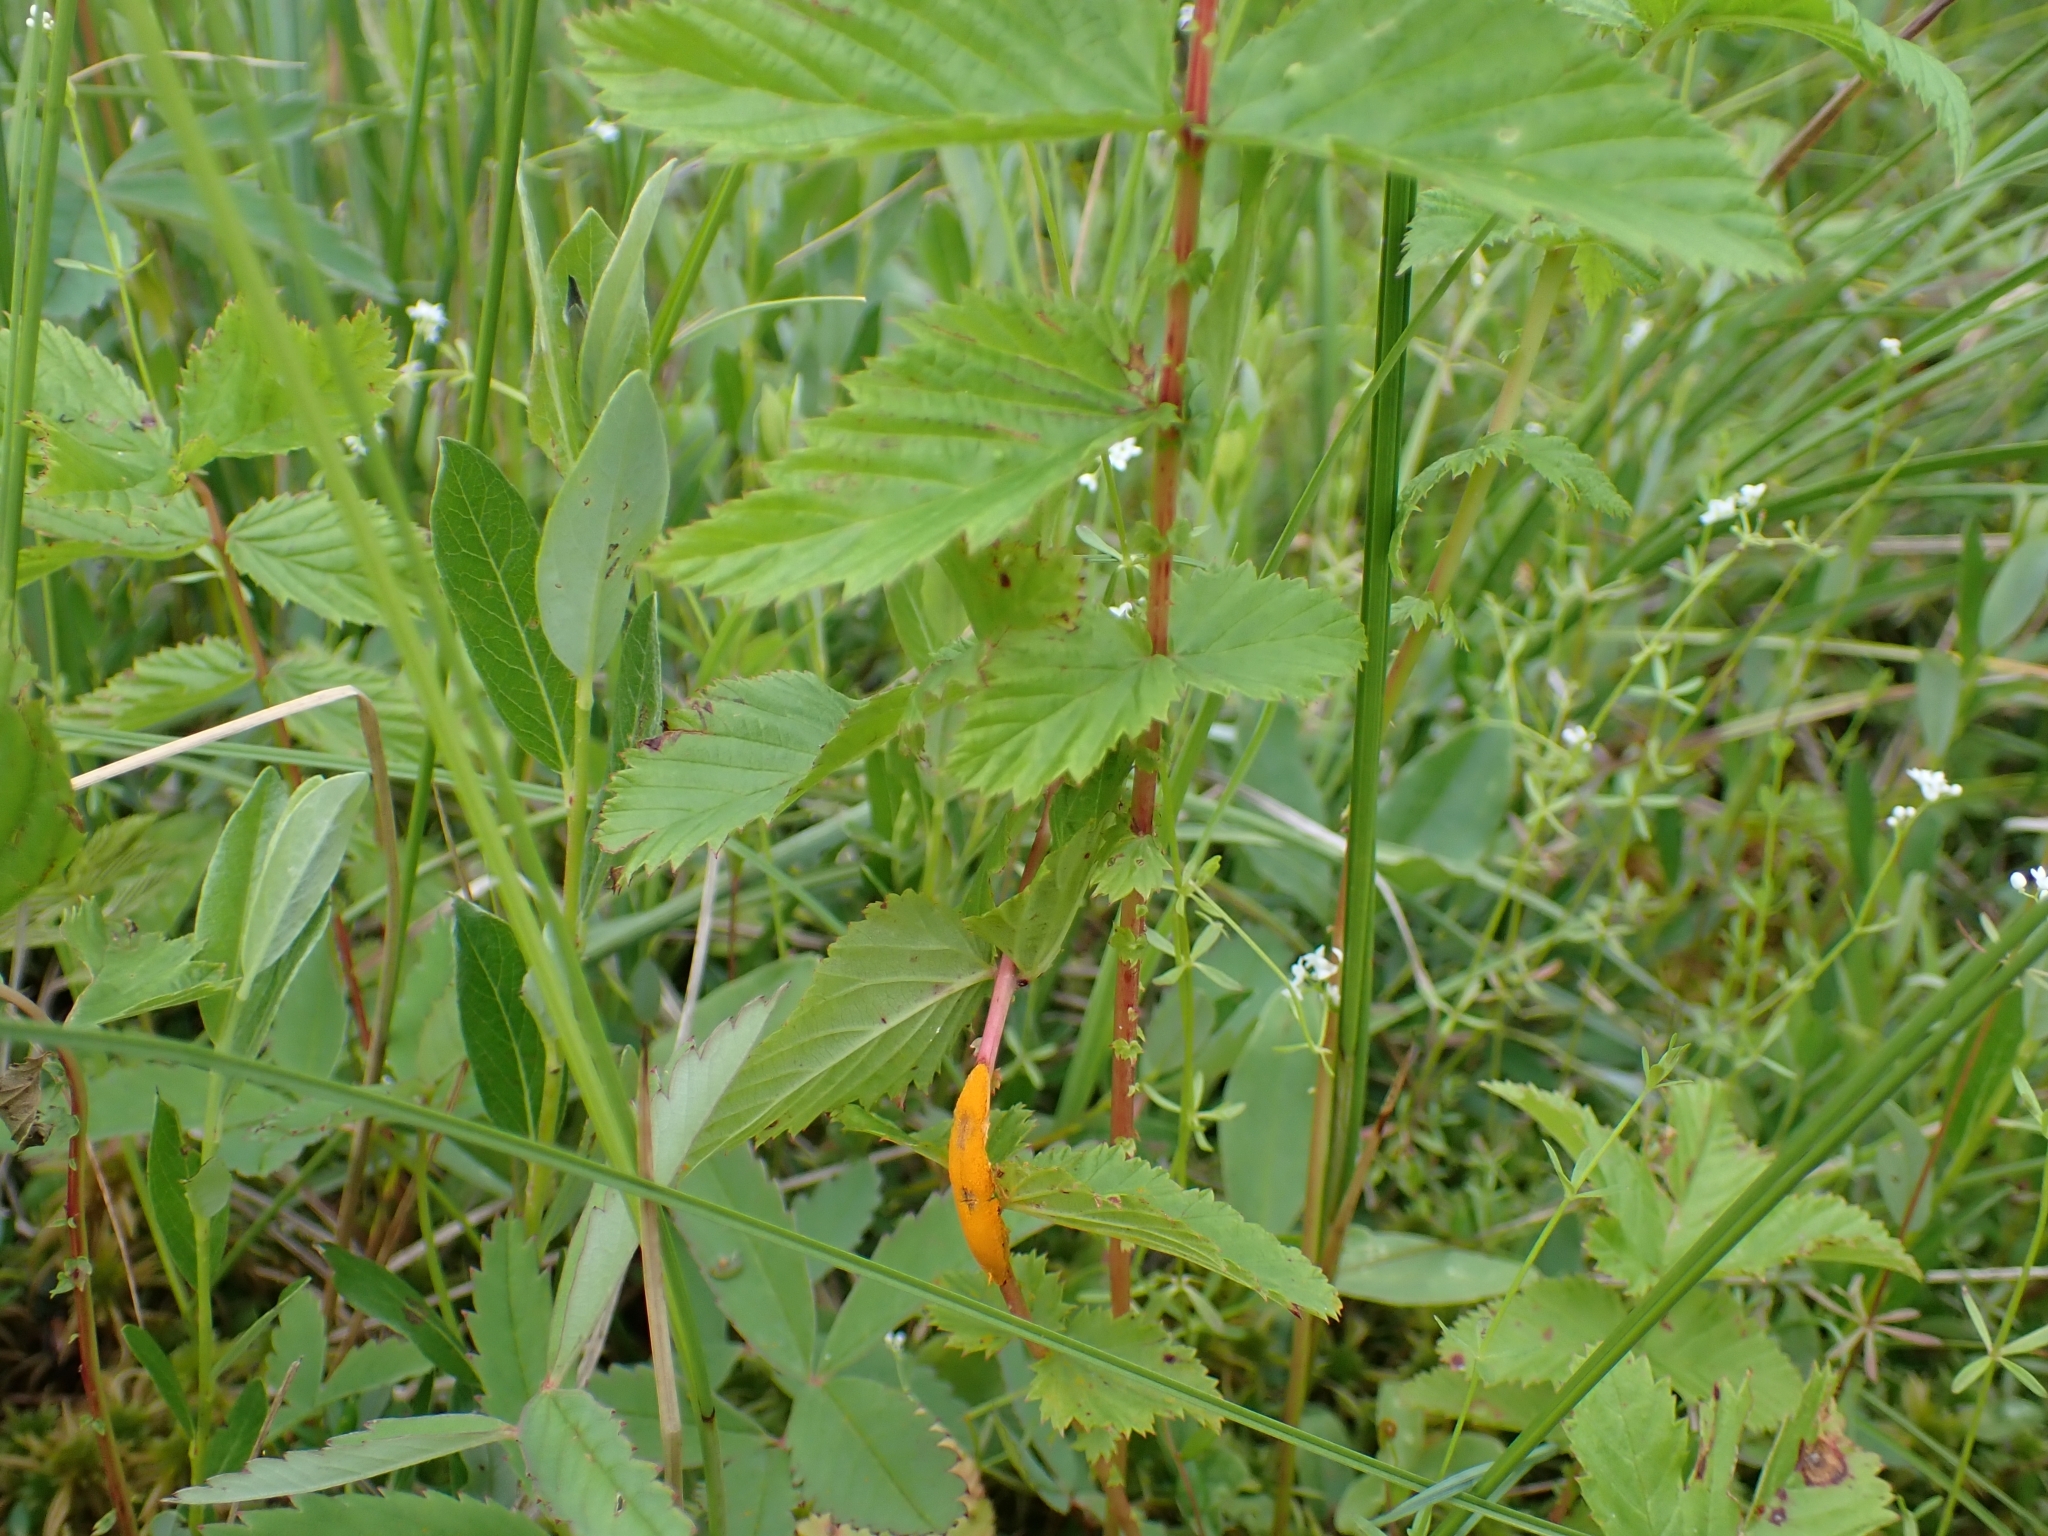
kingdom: Fungi
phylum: Basidiomycota
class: Pucciniomycetes
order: Pucciniales
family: Raveneliaceae
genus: Triphragmium
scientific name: Triphragmium ulmariae
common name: Meadowsweet rust
